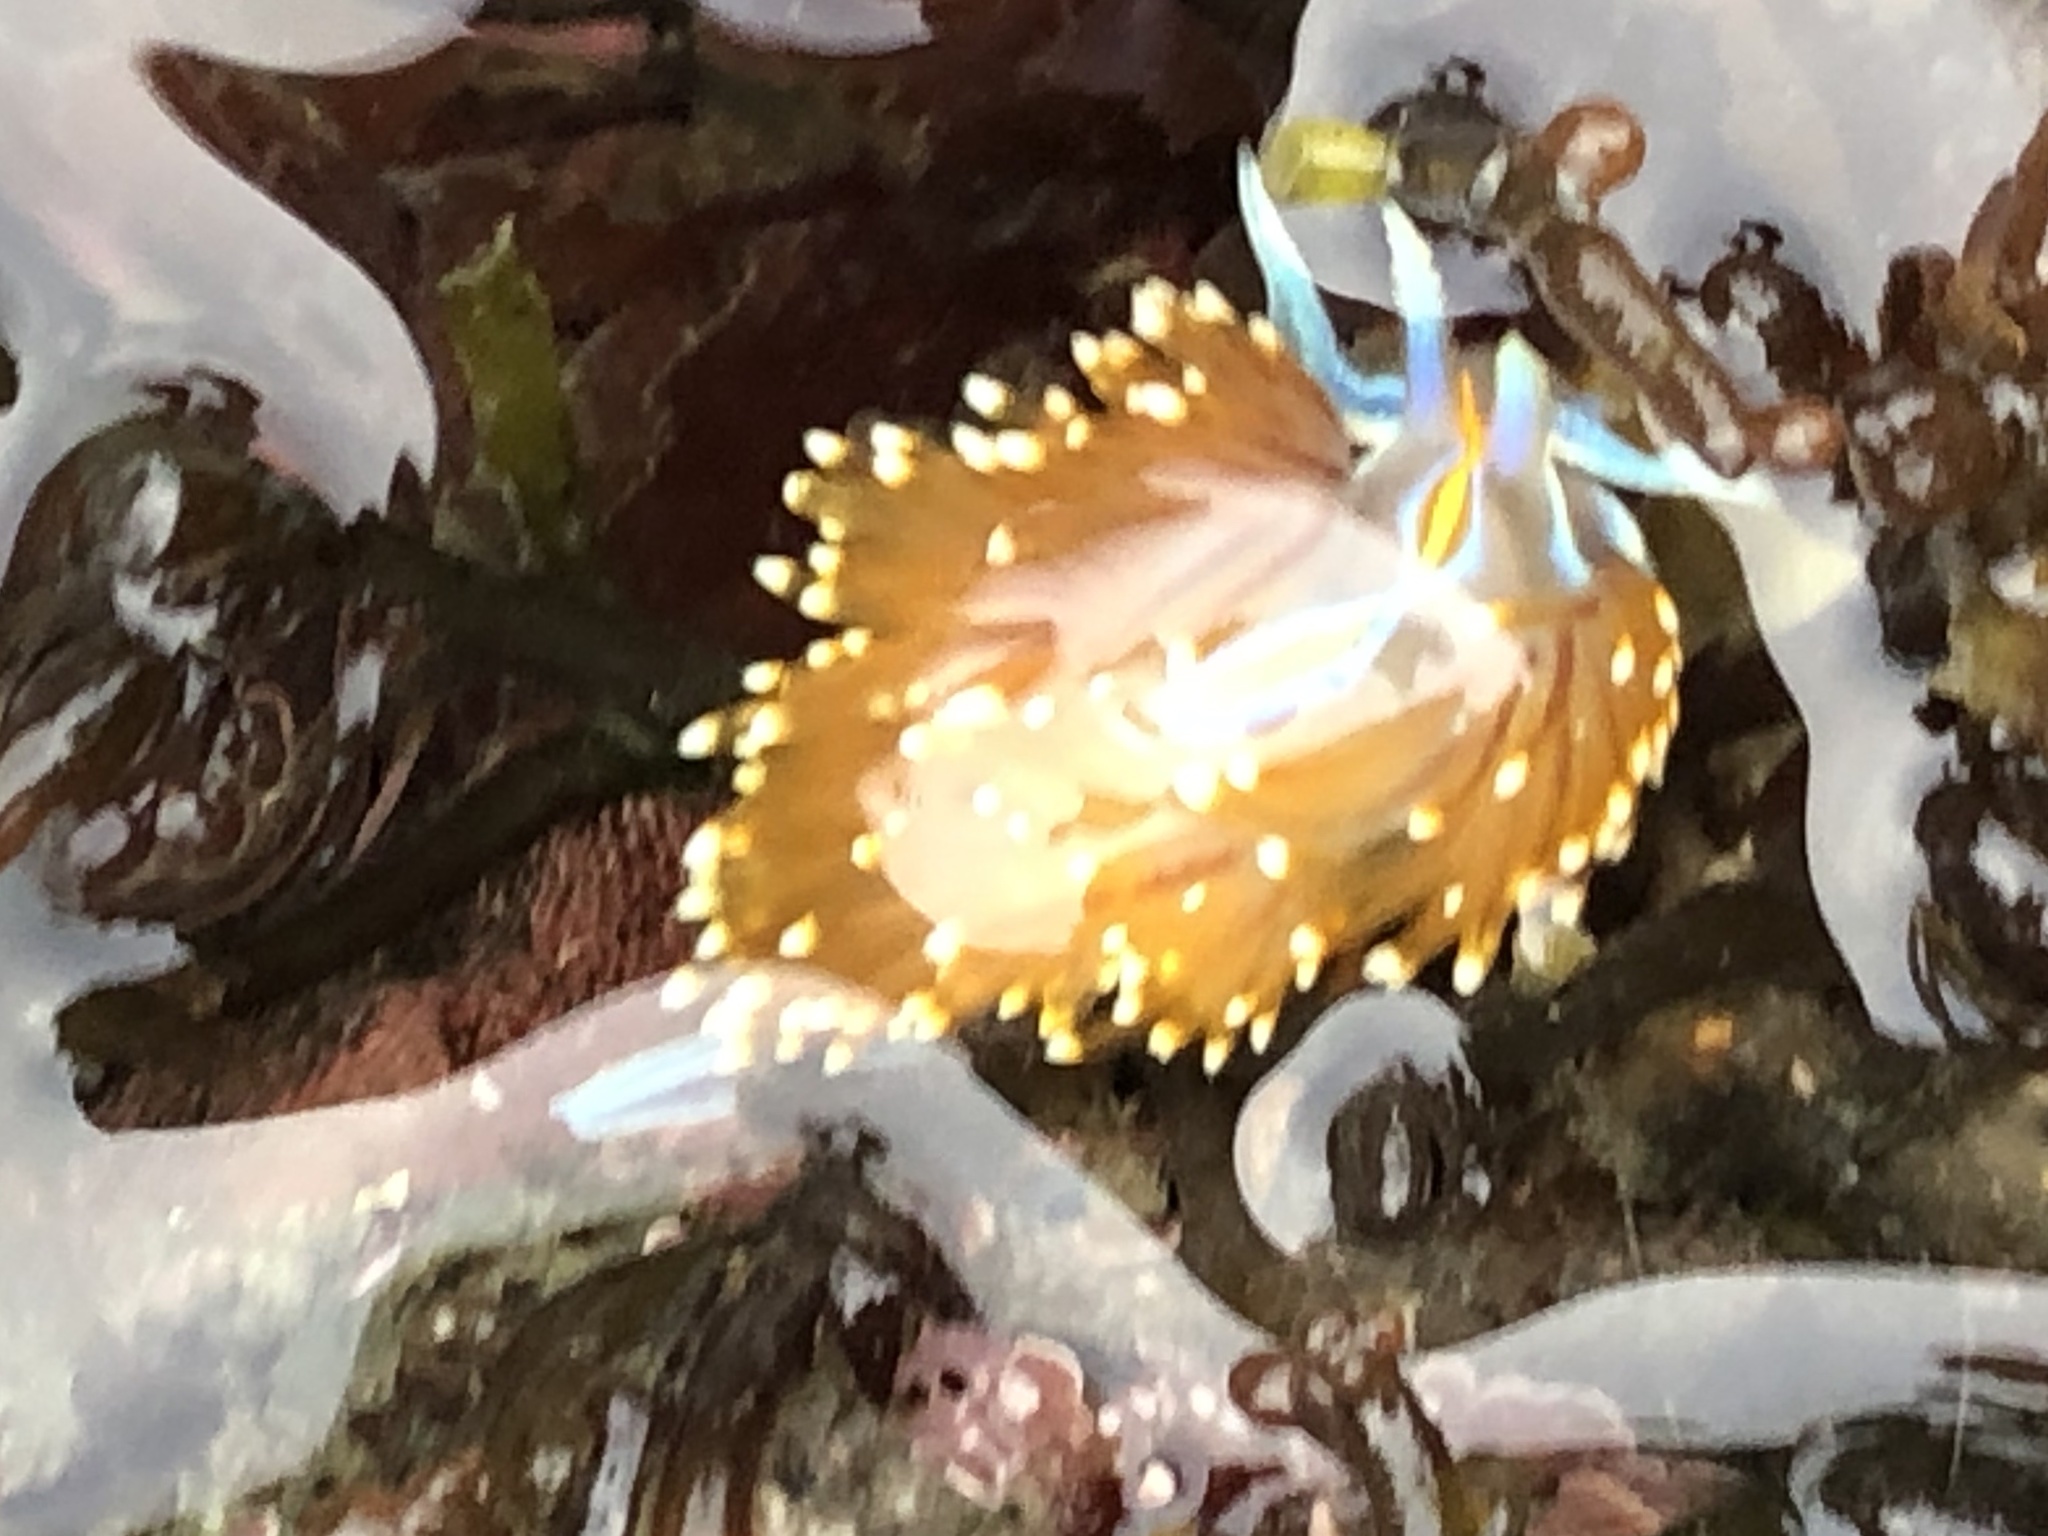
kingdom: Animalia
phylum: Mollusca
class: Gastropoda
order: Nudibranchia
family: Myrrhinidae
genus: Hermissenda
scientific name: Hermissenda opalescens
